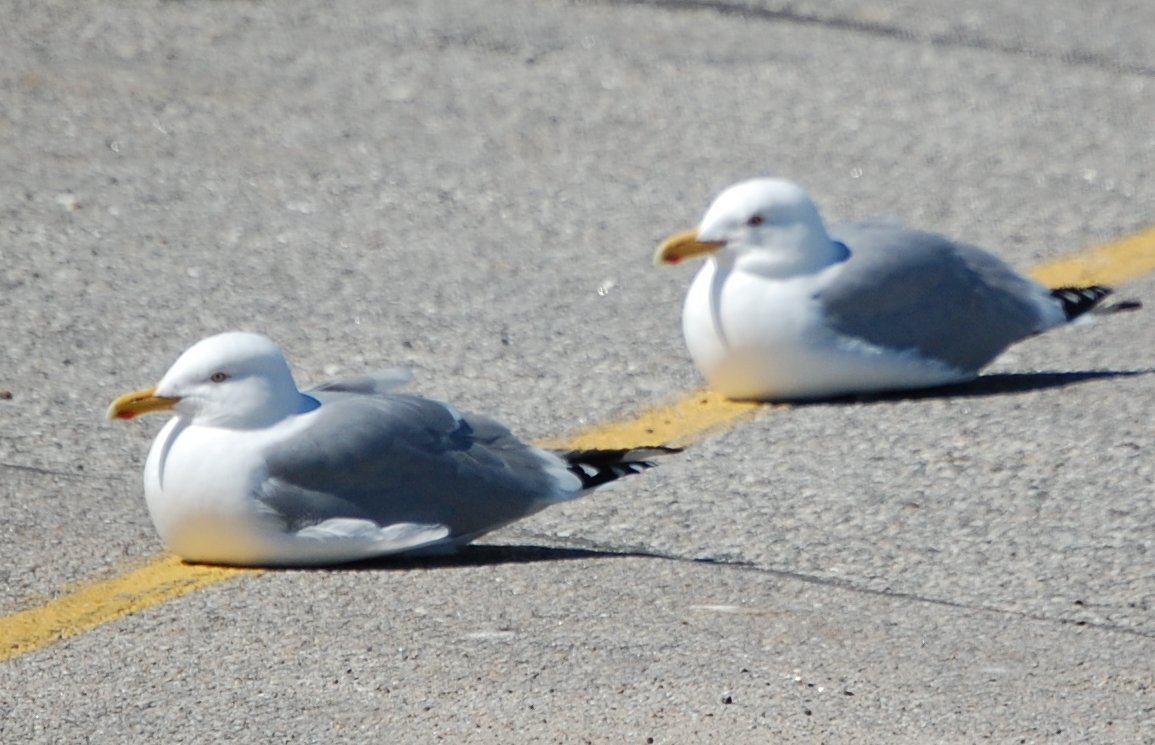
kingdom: Animalia
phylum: Chordata
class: Aves
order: Charadriiformes
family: Laridae
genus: Larus
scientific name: Larus argentatus
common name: Herring gull
